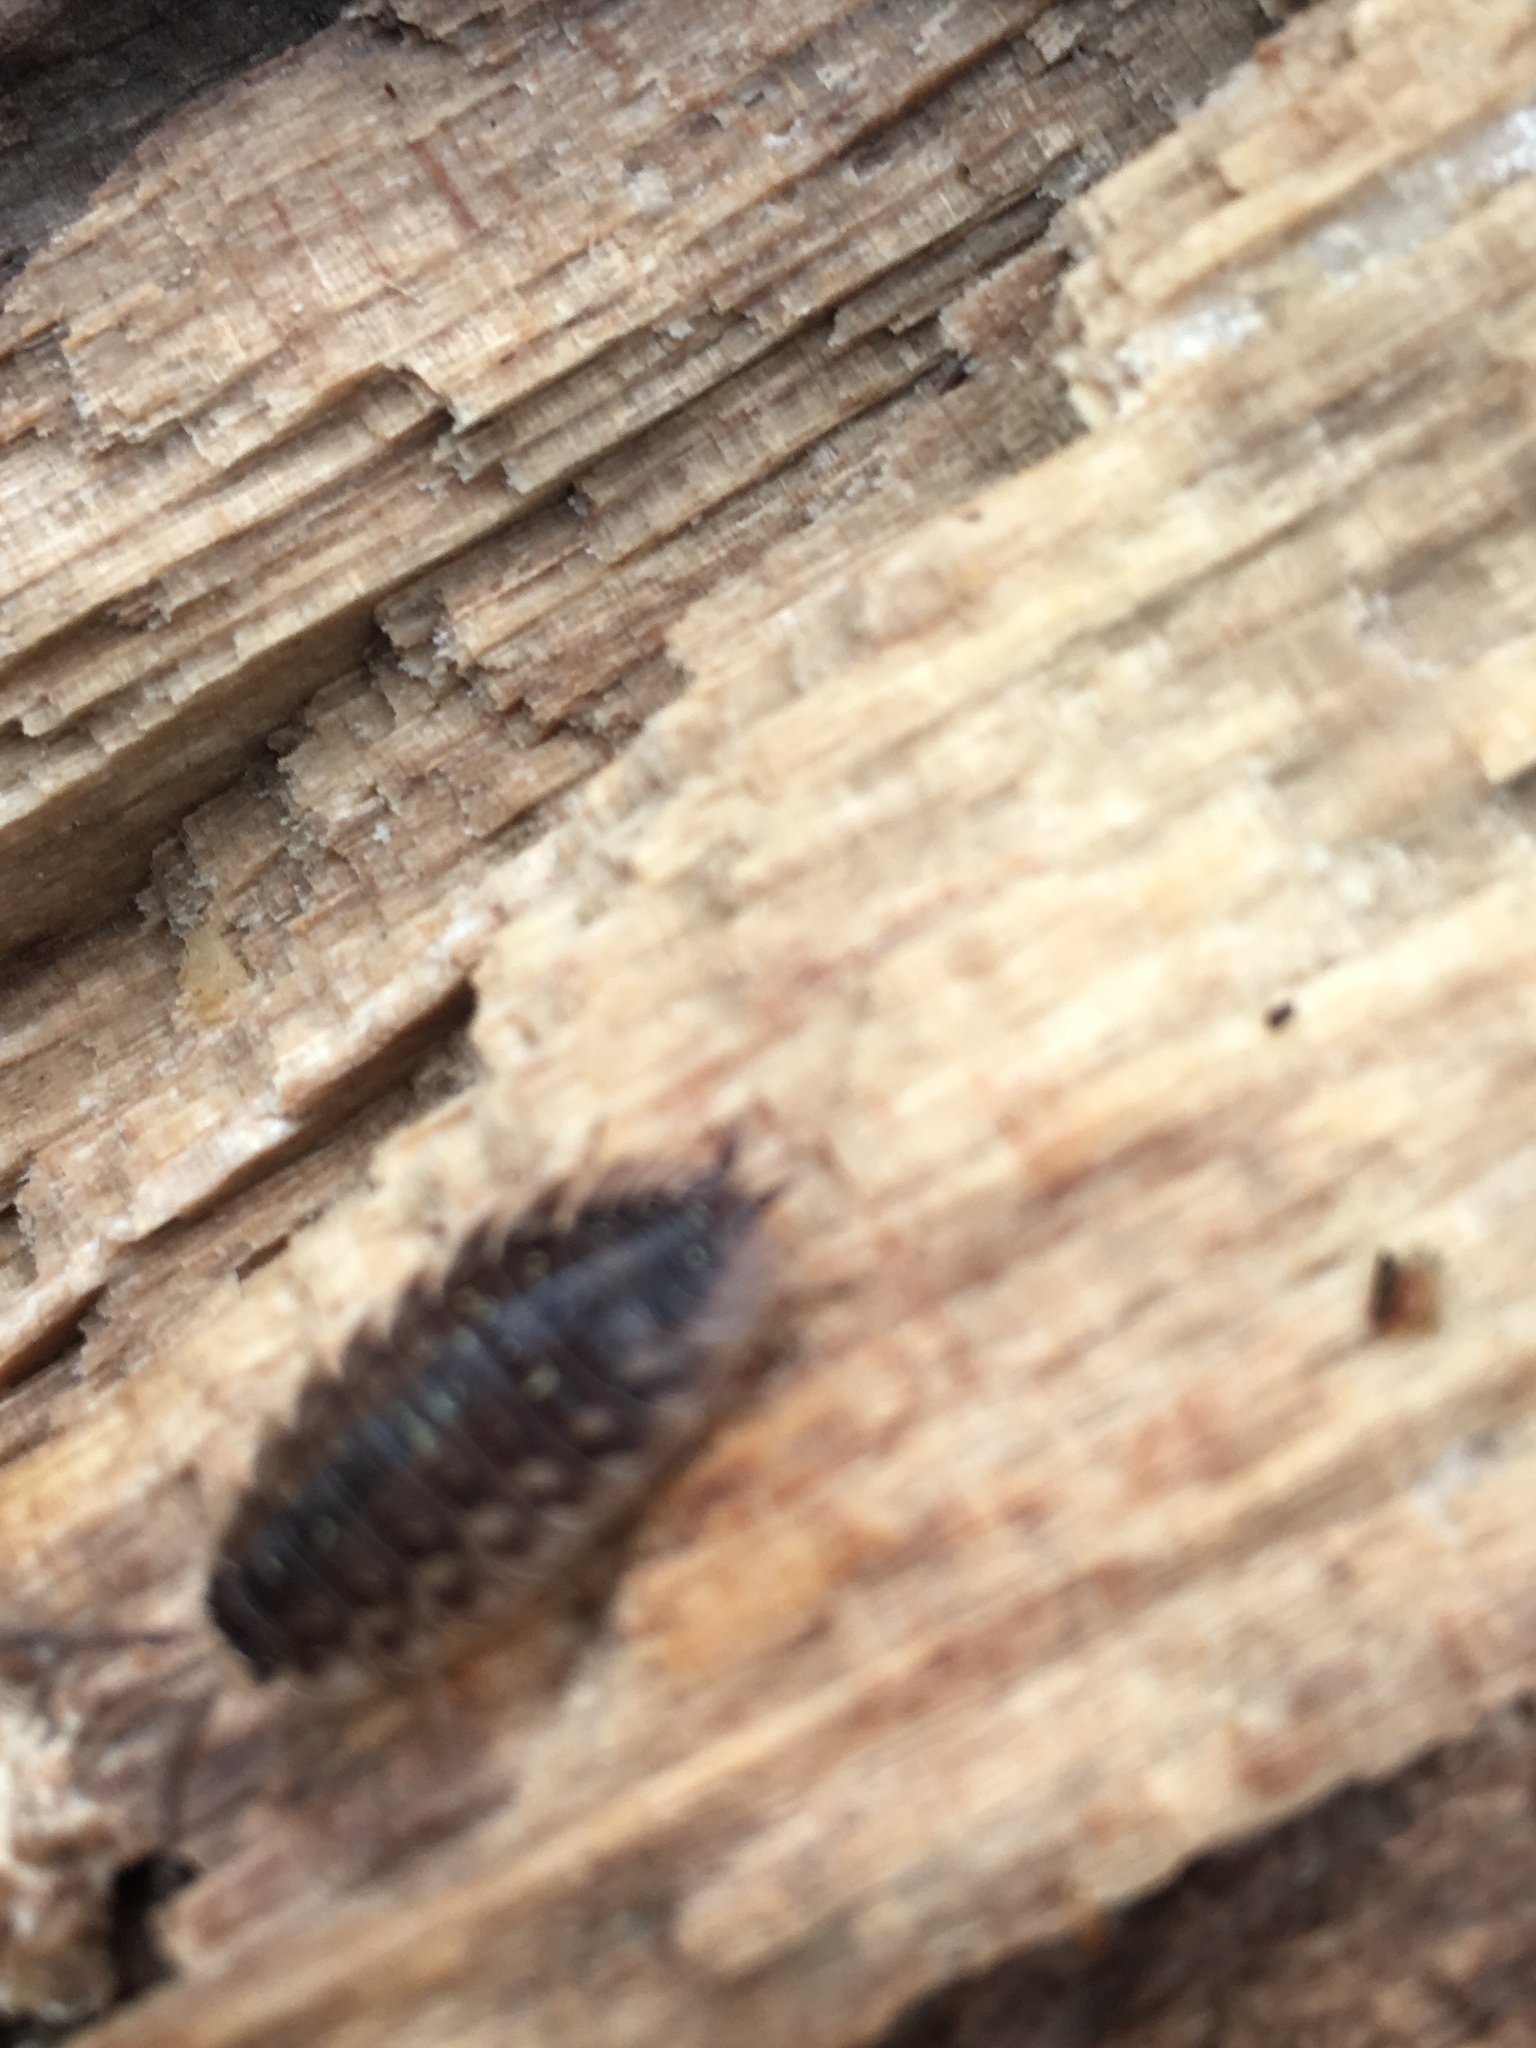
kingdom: Animalia
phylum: Arthropoda
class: Malacostraca
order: Isopoda
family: Oniscidae
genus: Oniscus
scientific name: Oniscus asellus
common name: Common shiny woodlouse
